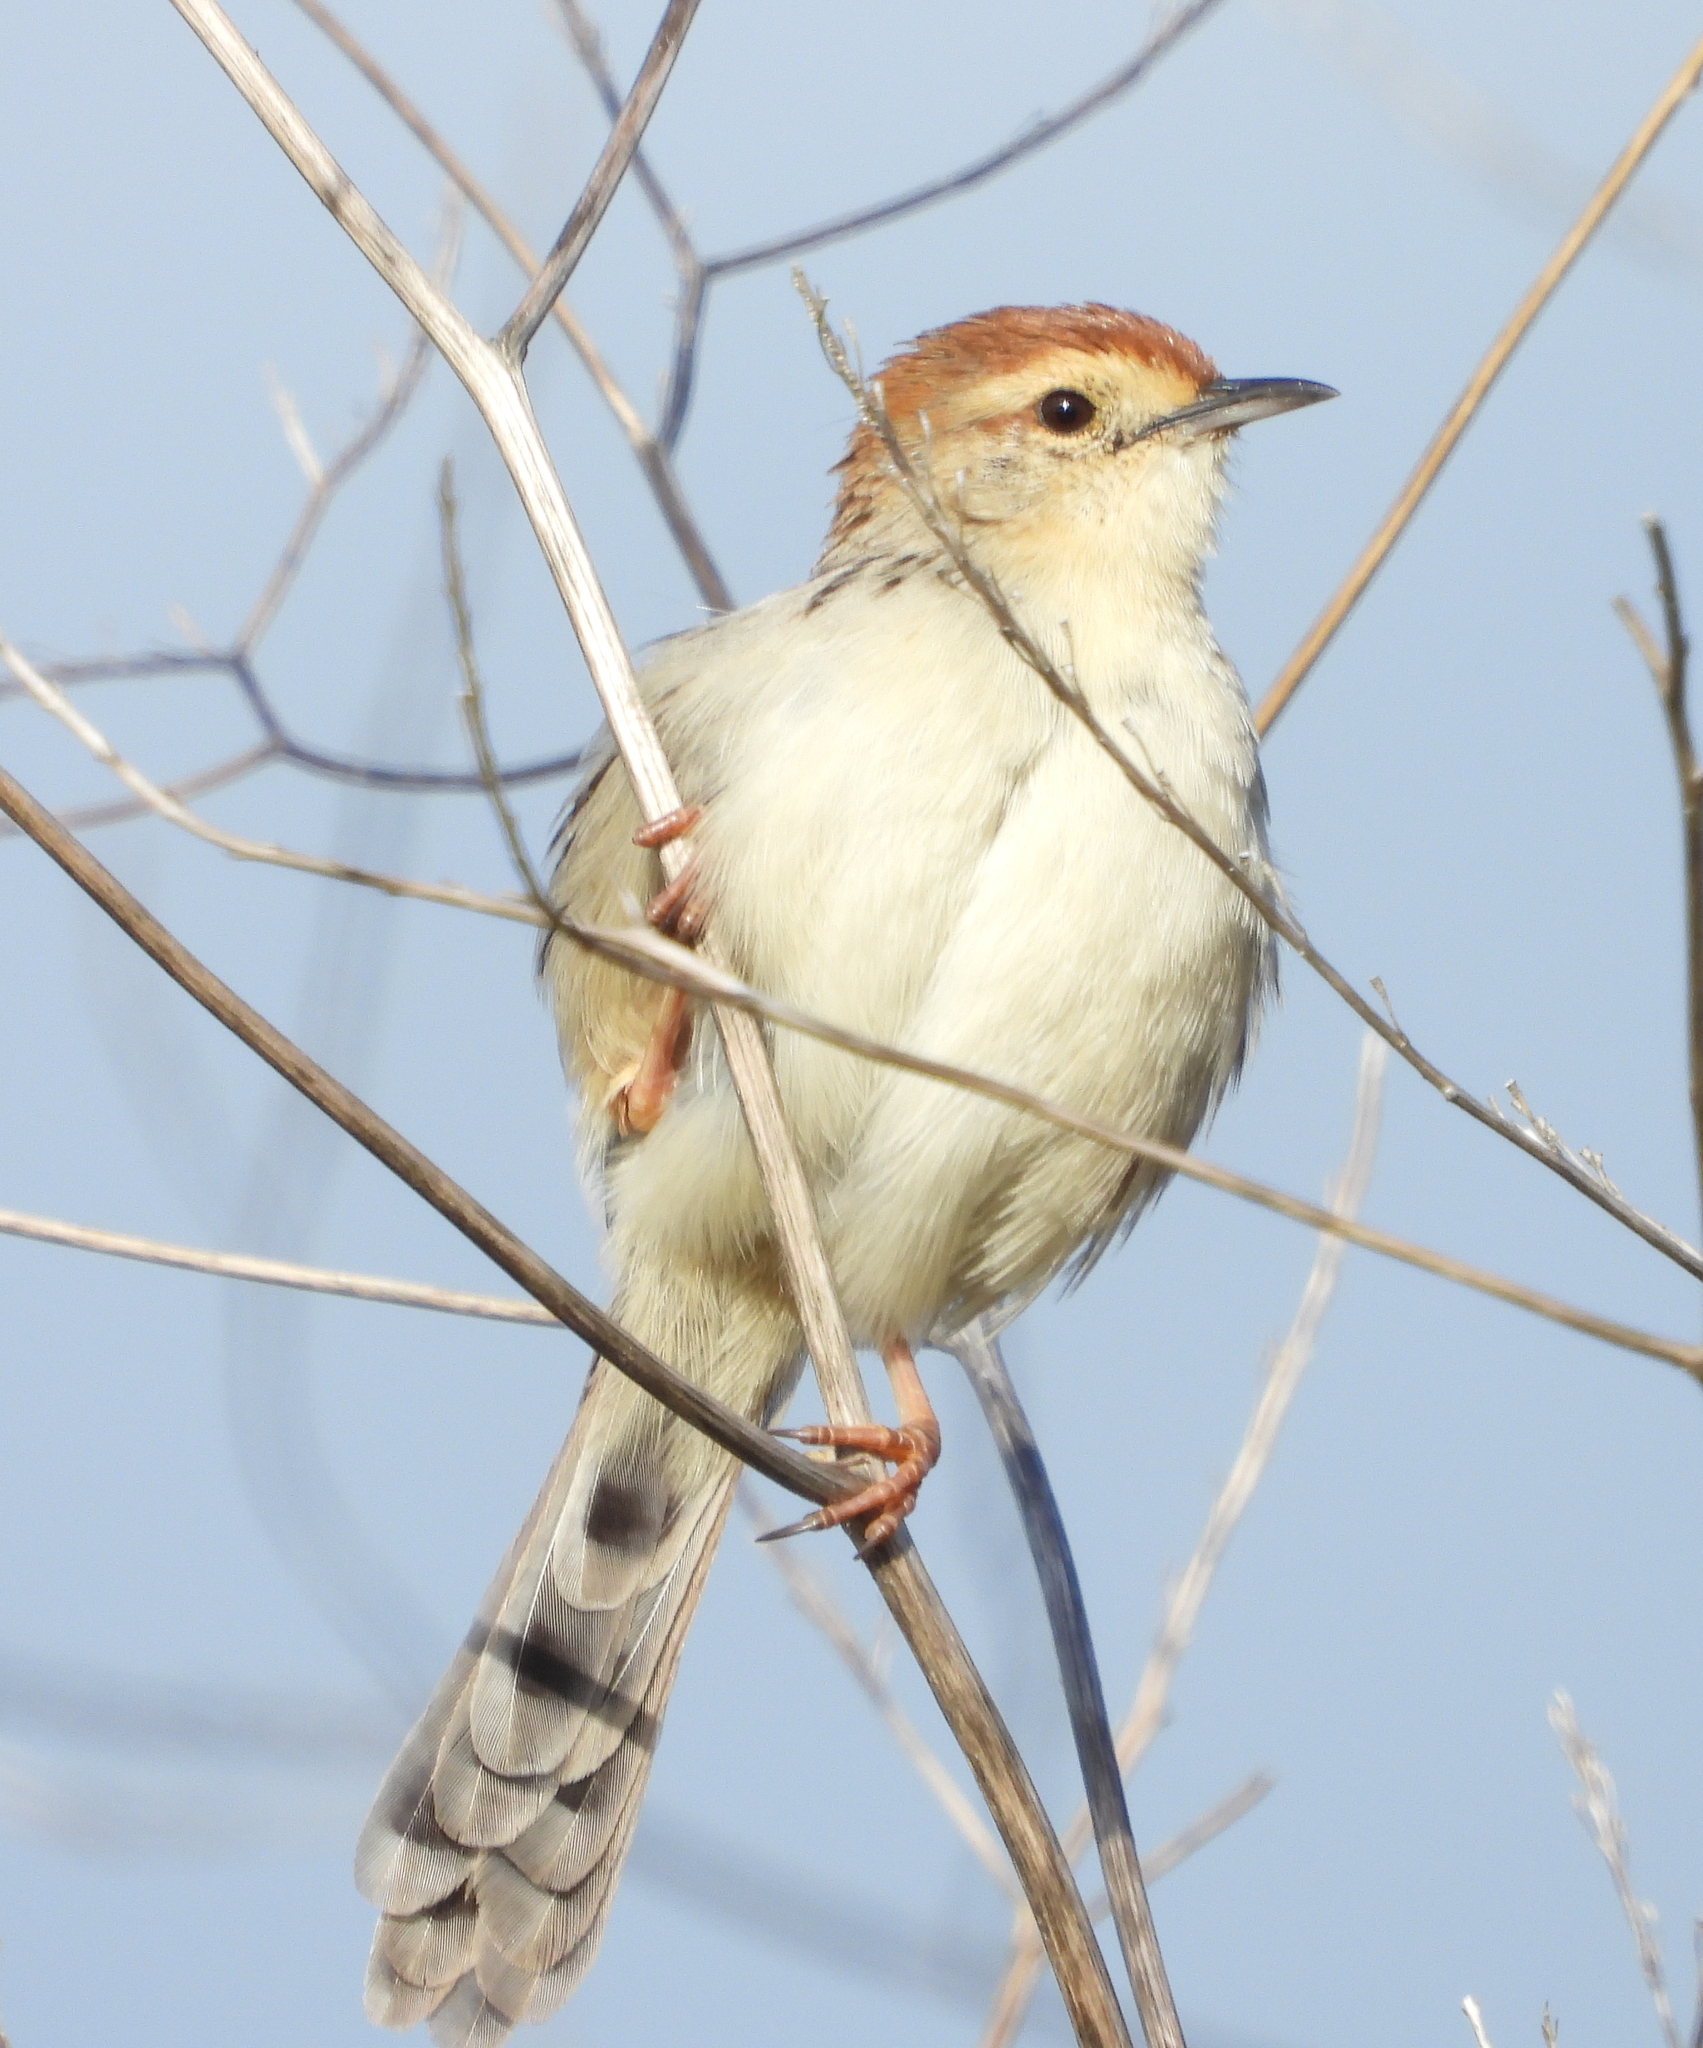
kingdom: Animalia
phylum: Chordata
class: Aves
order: Passeriformes
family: Cisticolidae
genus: Cisticola
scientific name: Cisticola tinniens
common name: Levaillant's cisticola
